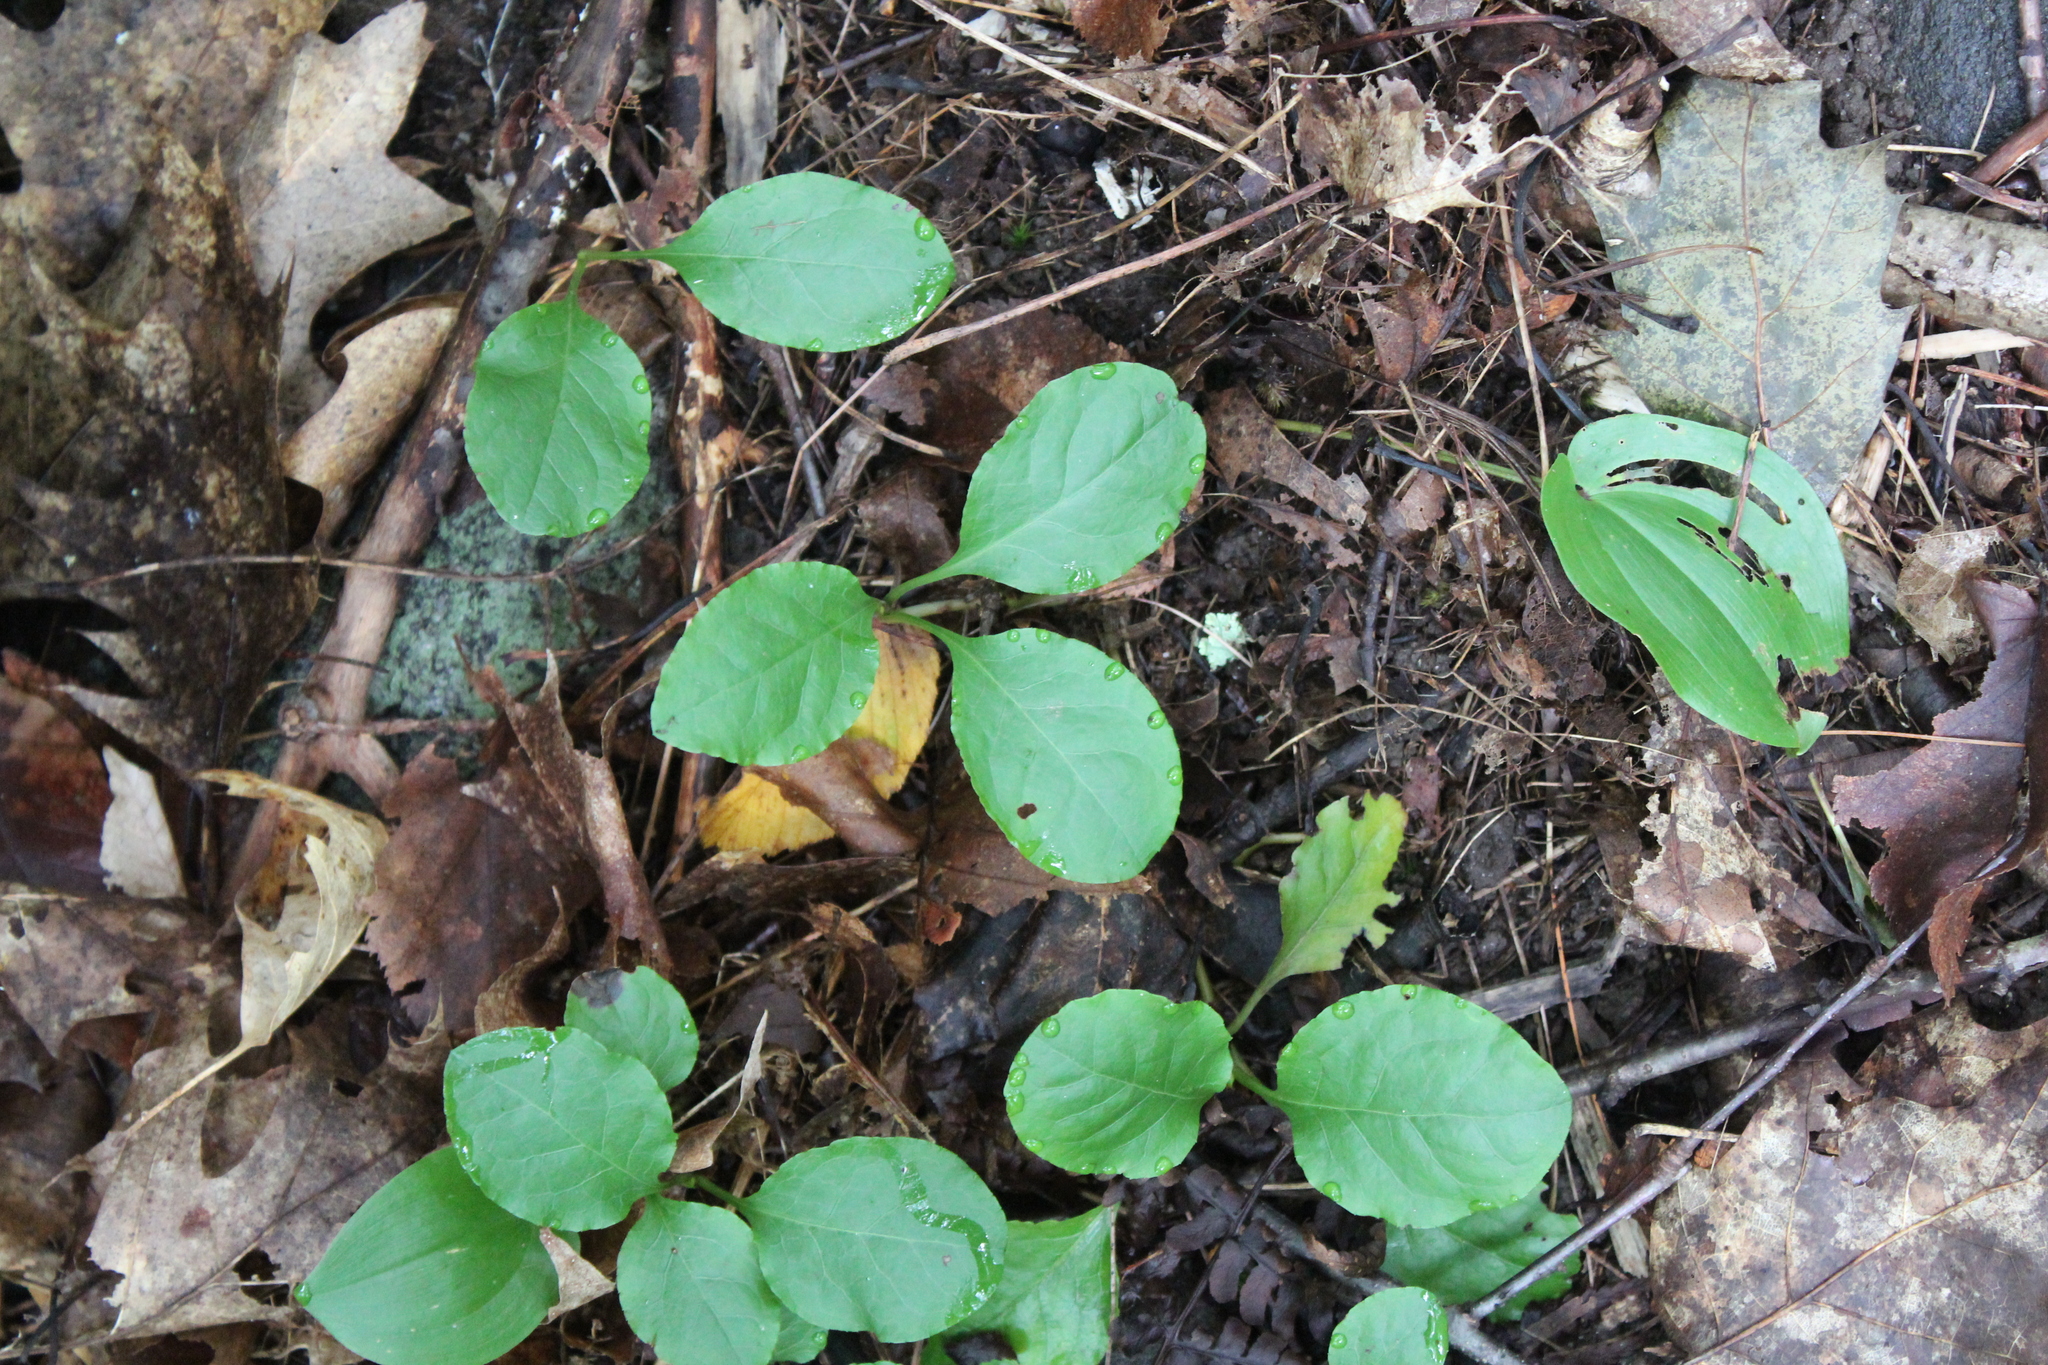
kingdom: Plantae
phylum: Tracheophyta
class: Magnoliopsida
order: Ericales
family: Ericaceae
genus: Pyrola
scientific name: Pyrola elliptica
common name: Shinleaf
